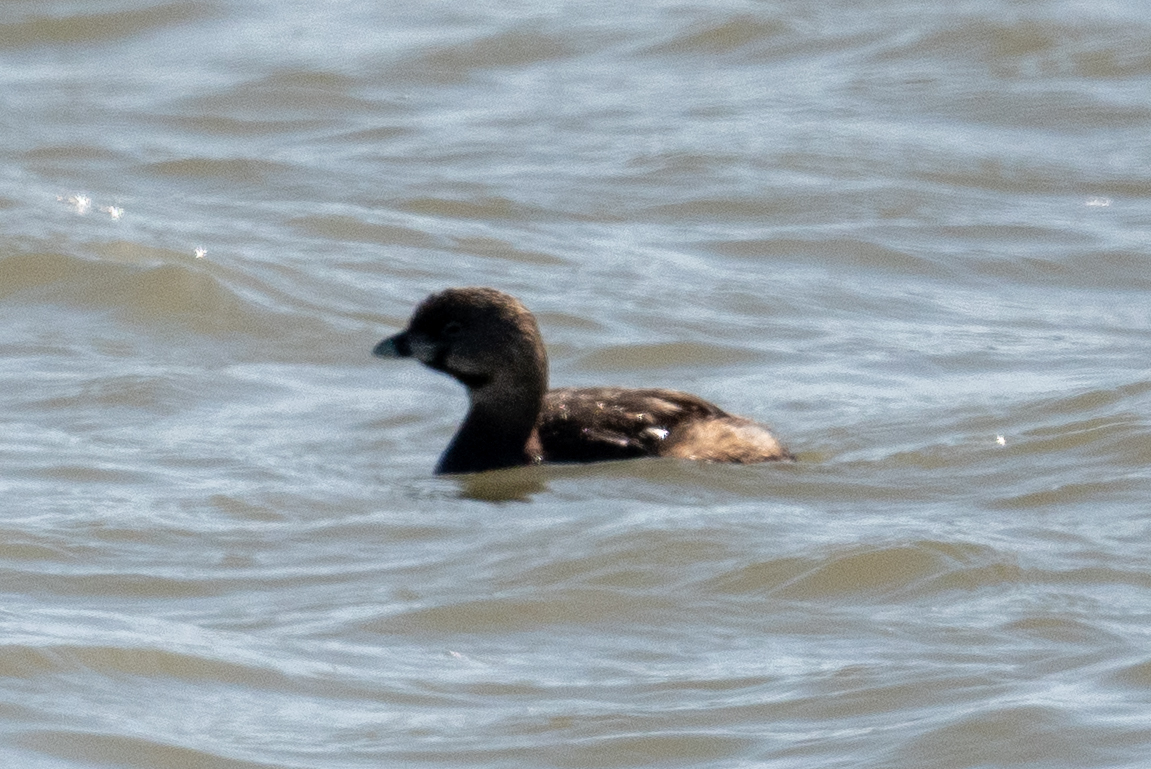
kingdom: Animalia
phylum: Chordata
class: Aves
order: Podicipediformes
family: Podicipedidae
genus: Podilymbus
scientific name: Podilymbus podiceps
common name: Pied-billed grebe
